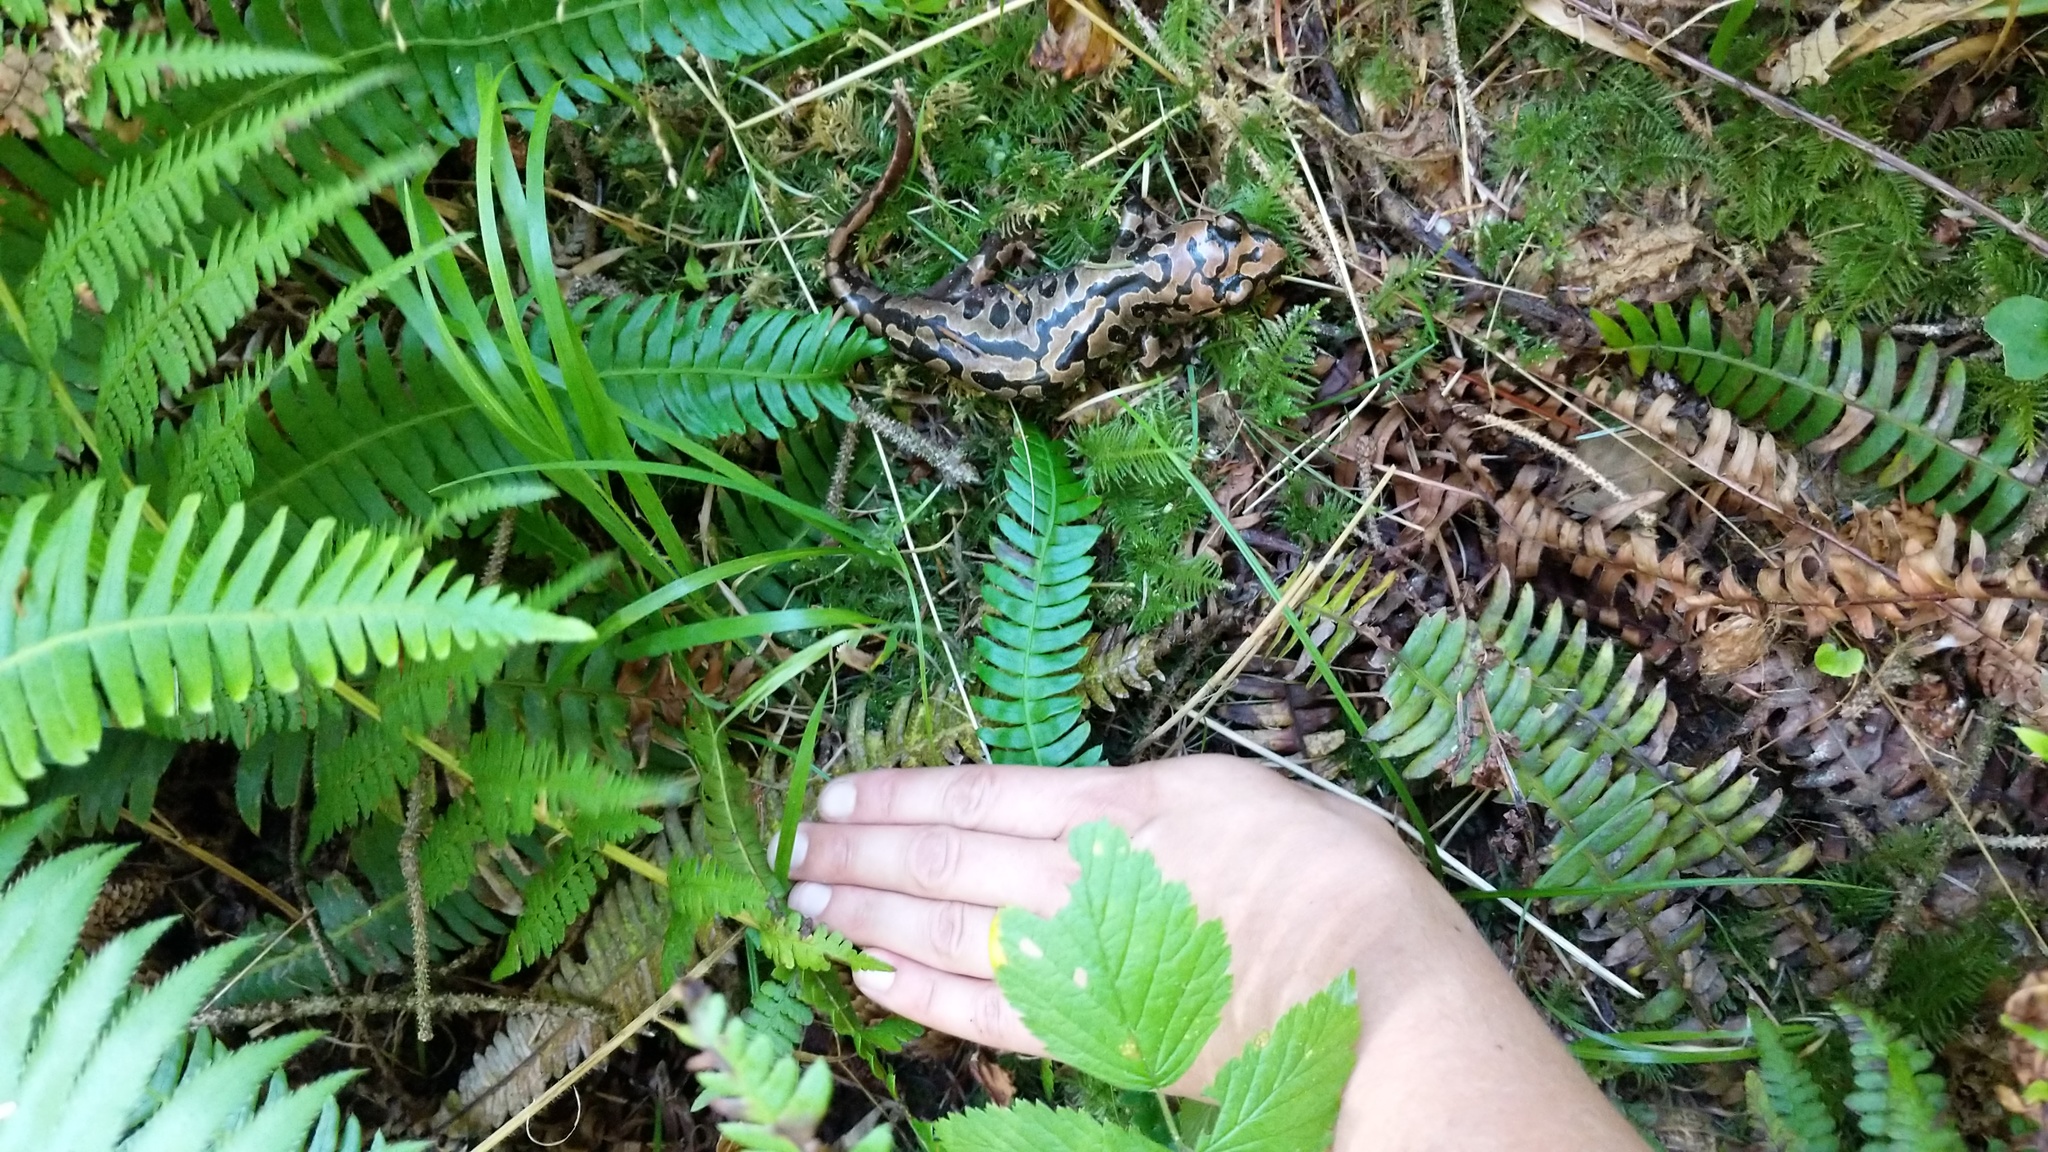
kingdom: Animalia
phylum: Chordata
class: Amphibia
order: Caudata
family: Ambystomatidae
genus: Dicamptodon
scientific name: Dicamptodon tenebrosus
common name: Coastal giant salamander
